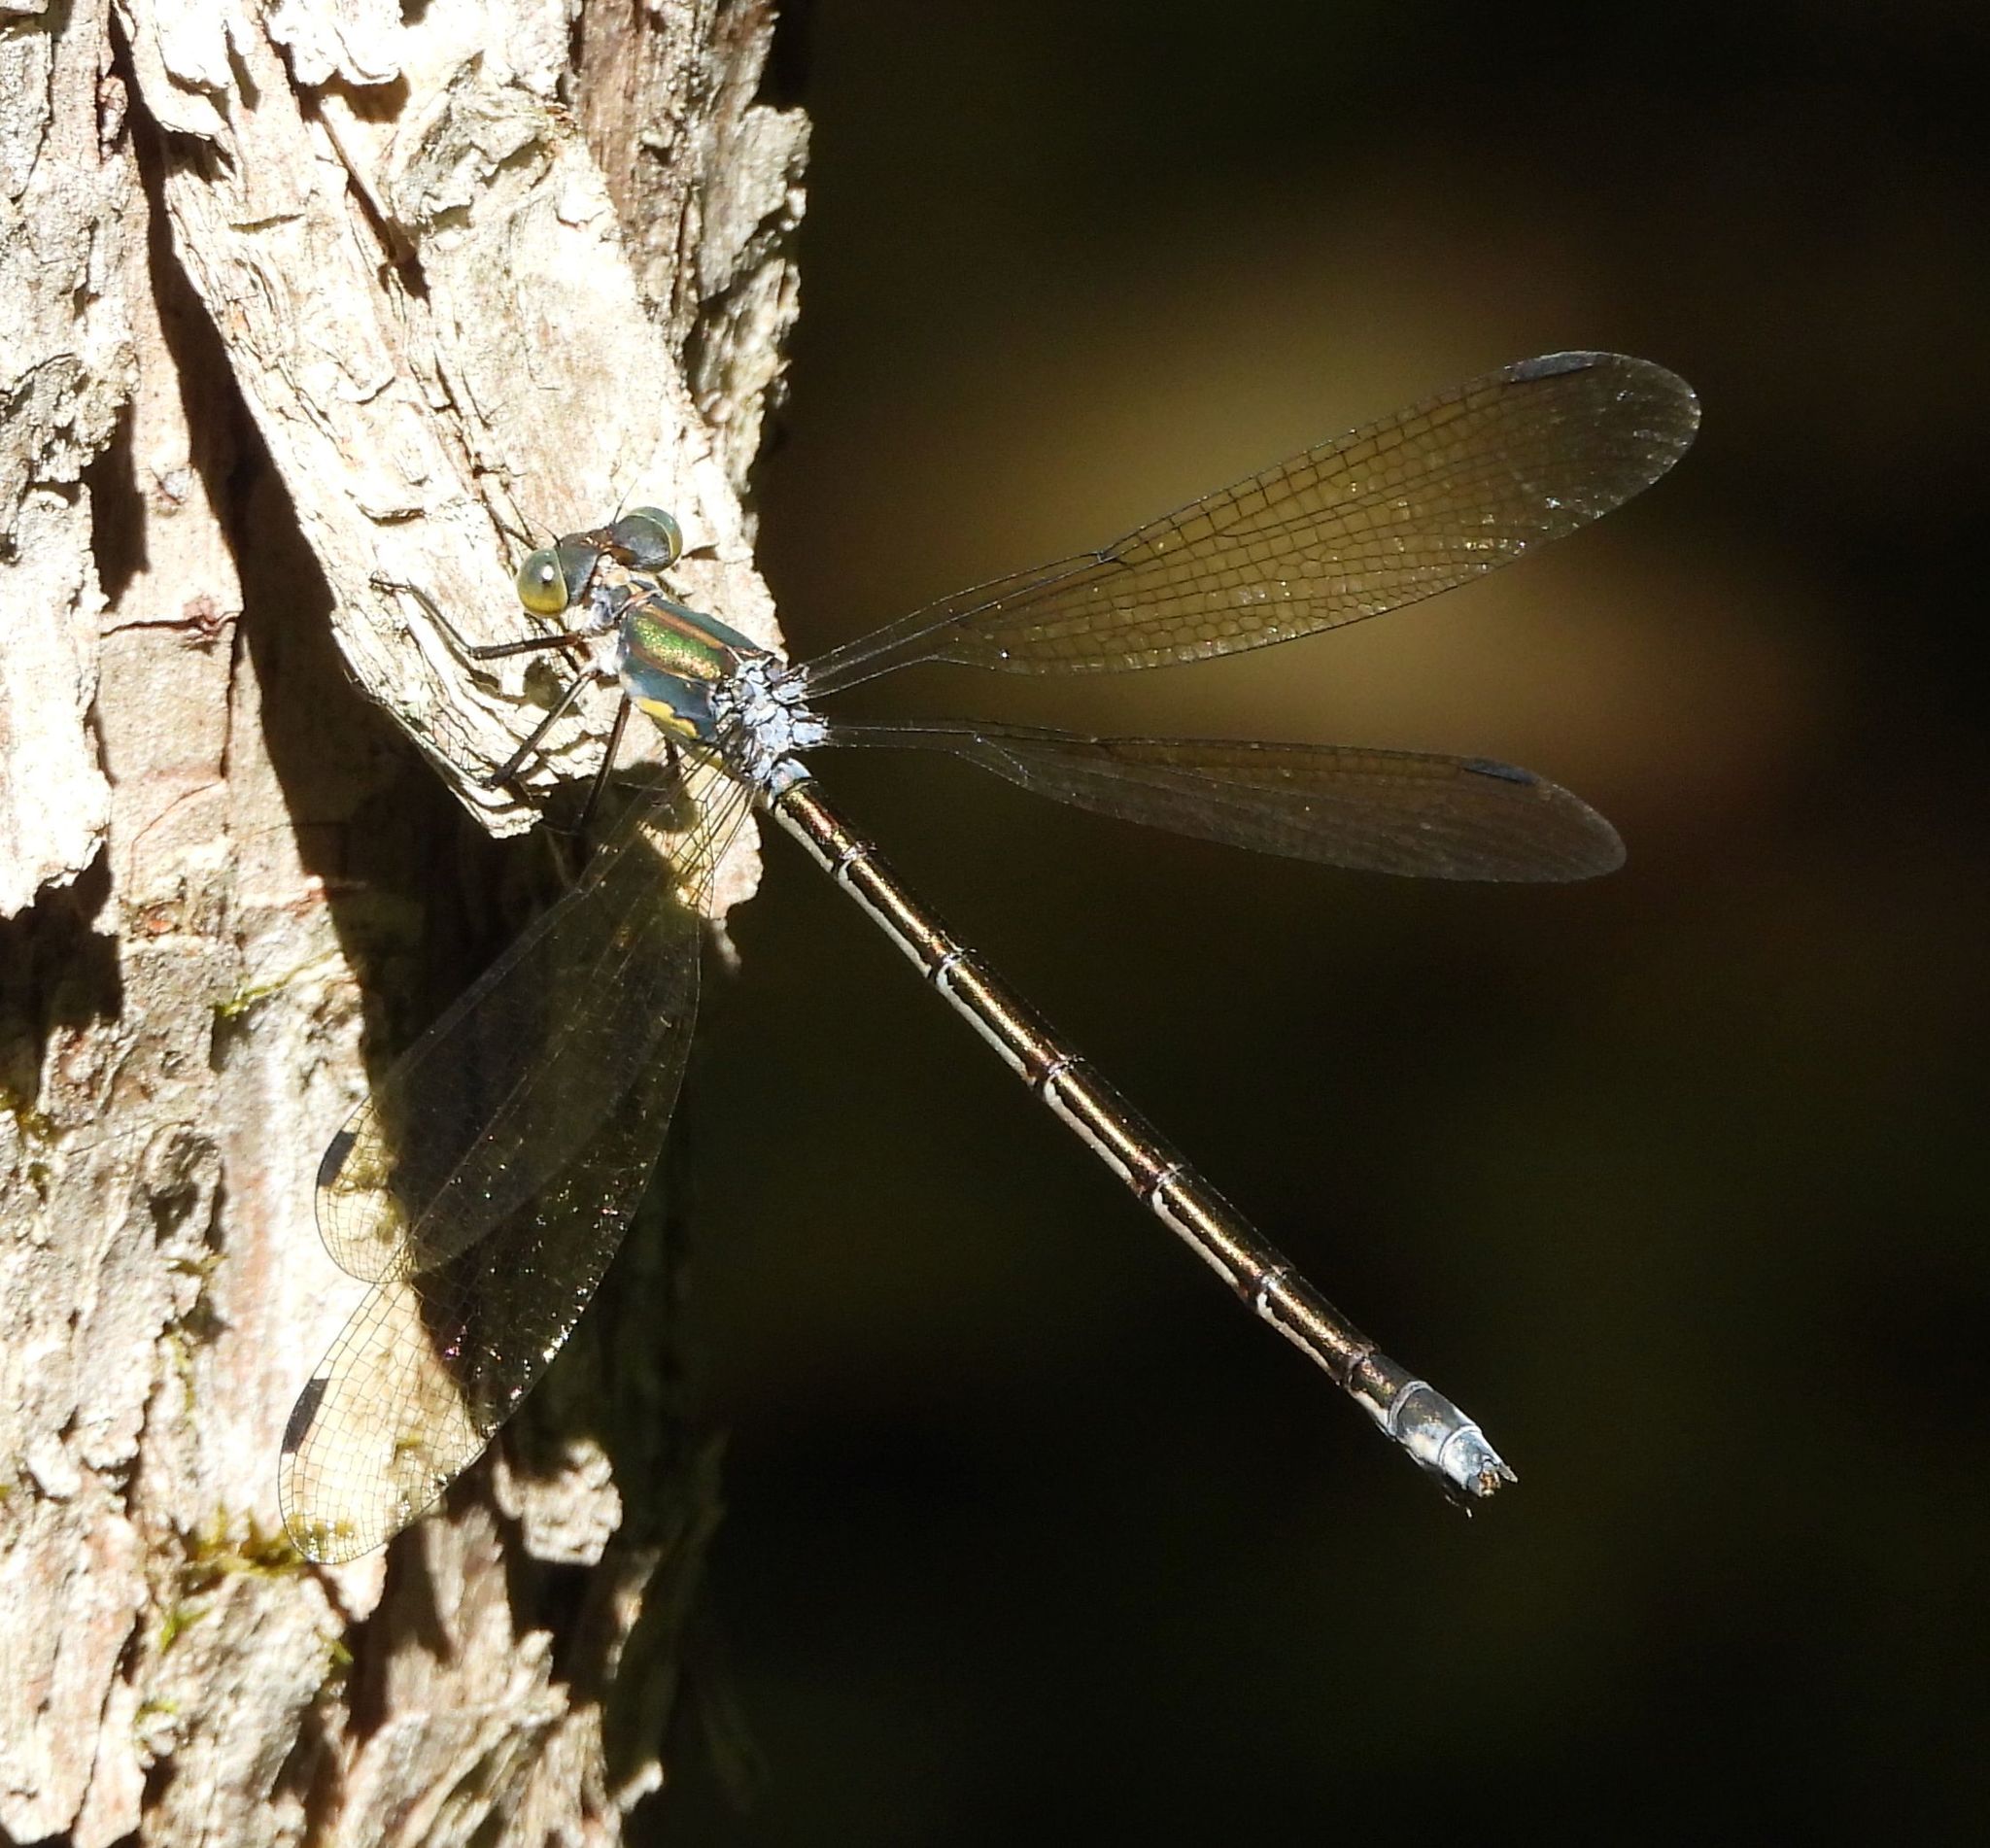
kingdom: Animalia
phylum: Arthropoda
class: Insecta
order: Odonata
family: Lestidae
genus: Lestes
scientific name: Lestes eurinus
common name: Amber-winged spreadwing
